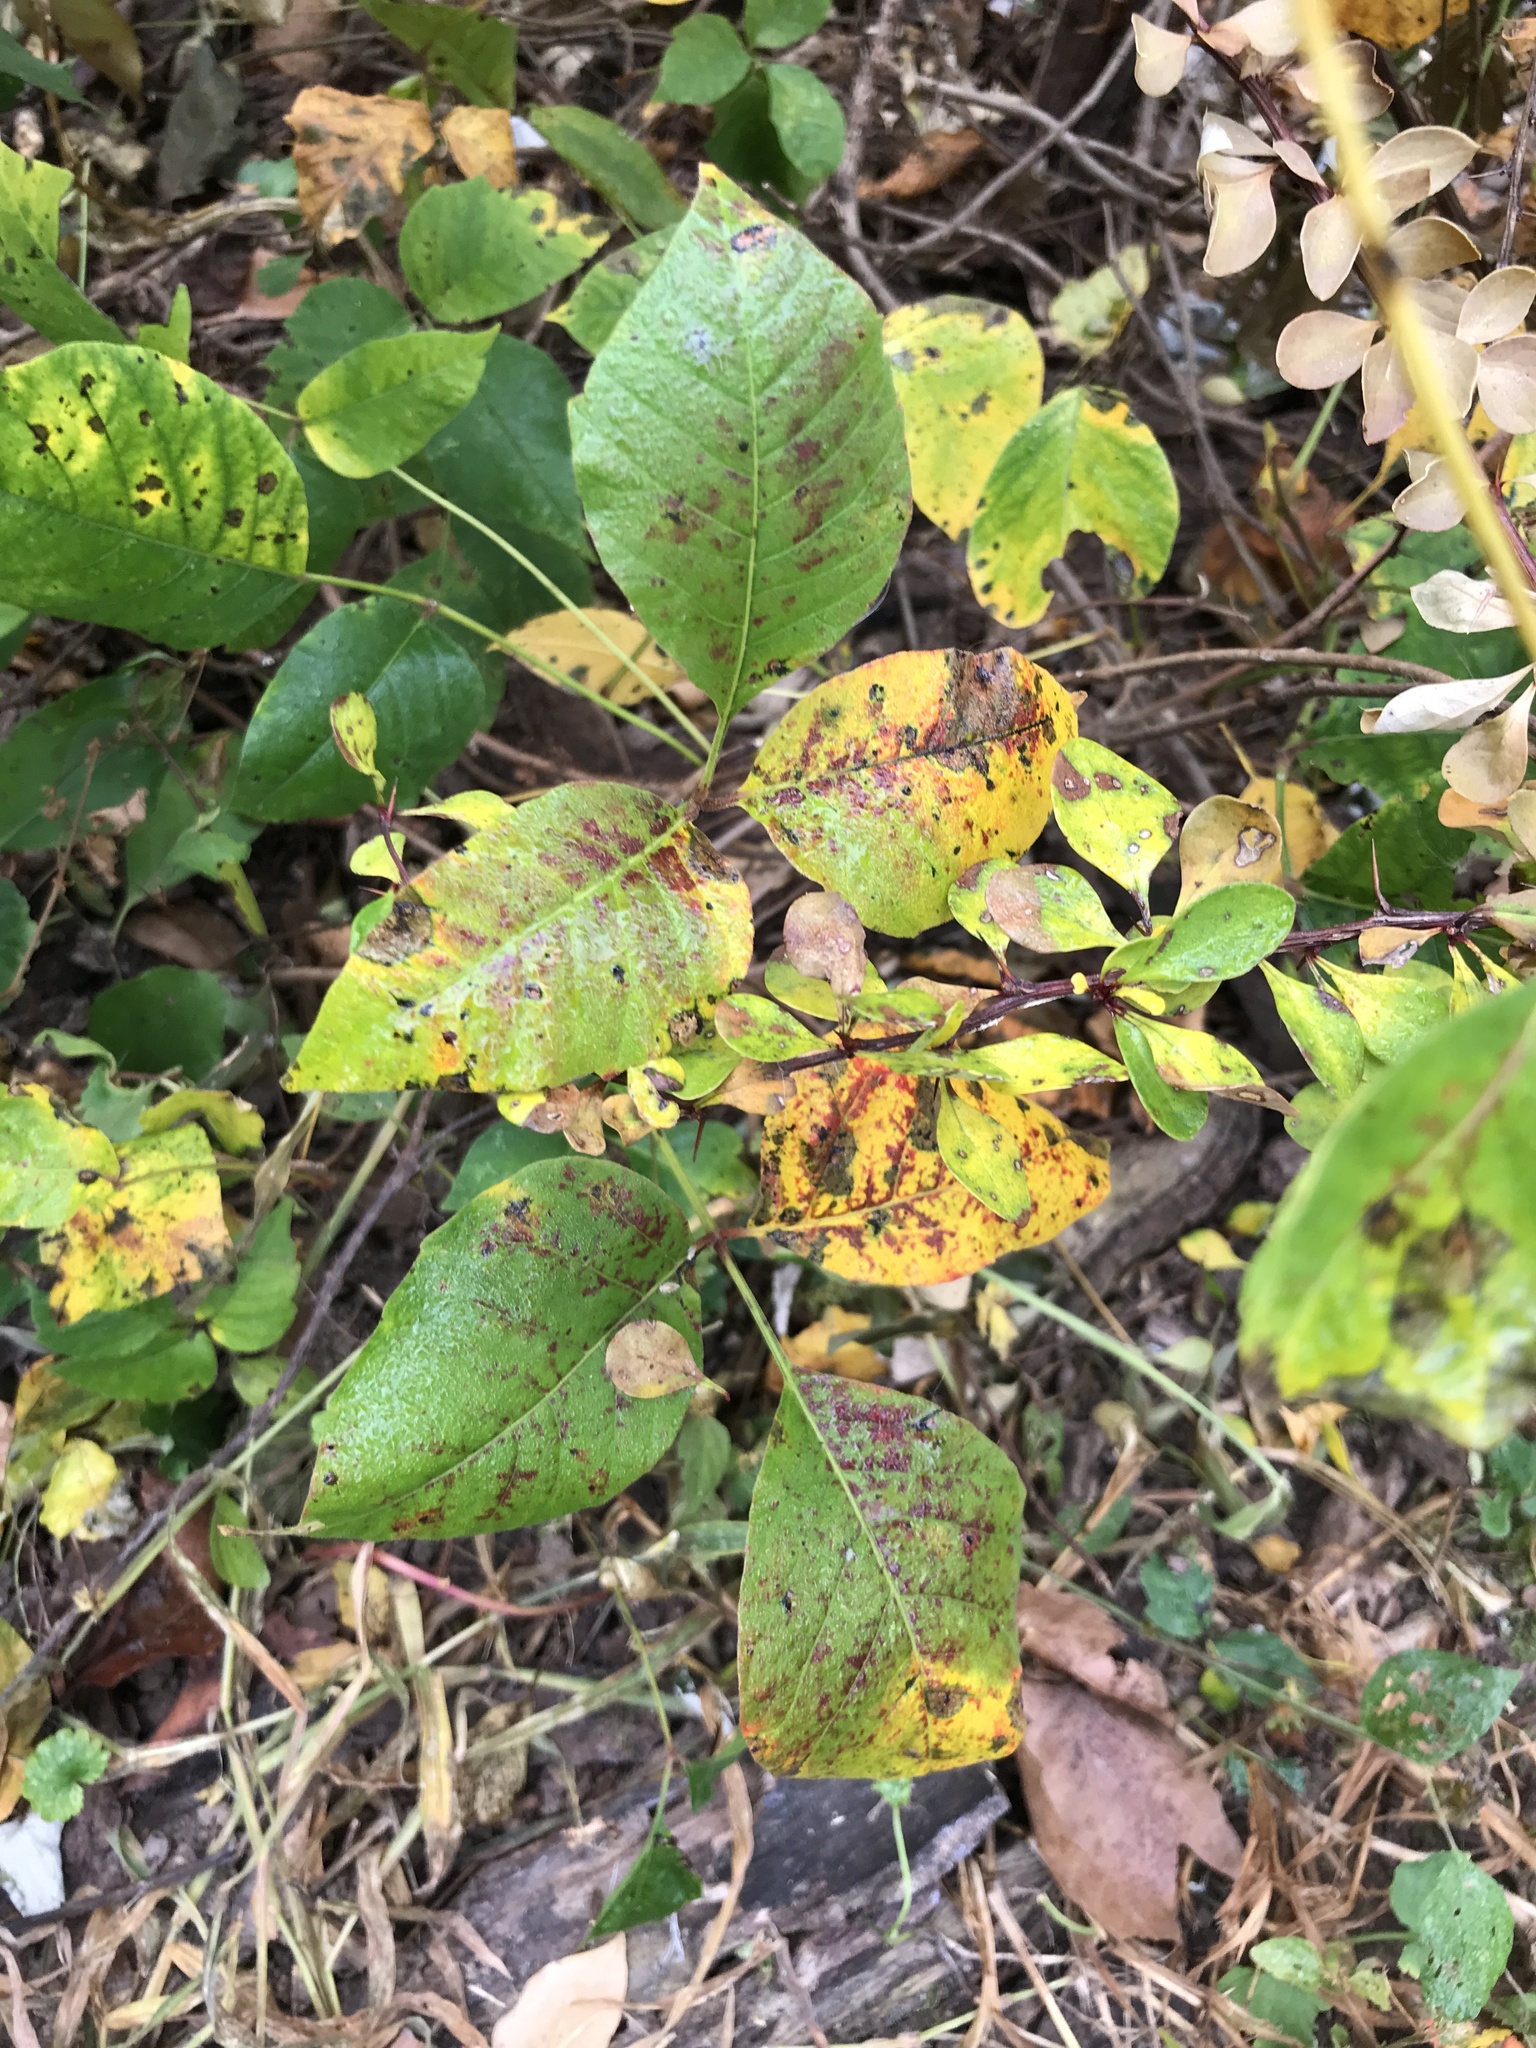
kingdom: Plantae
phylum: Tracheophyta
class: Magnoliopsida
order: Sapindales
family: Anacardiaceae
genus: Toxicodendron
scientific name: Toxicodendron radicans
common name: Poison ivy
